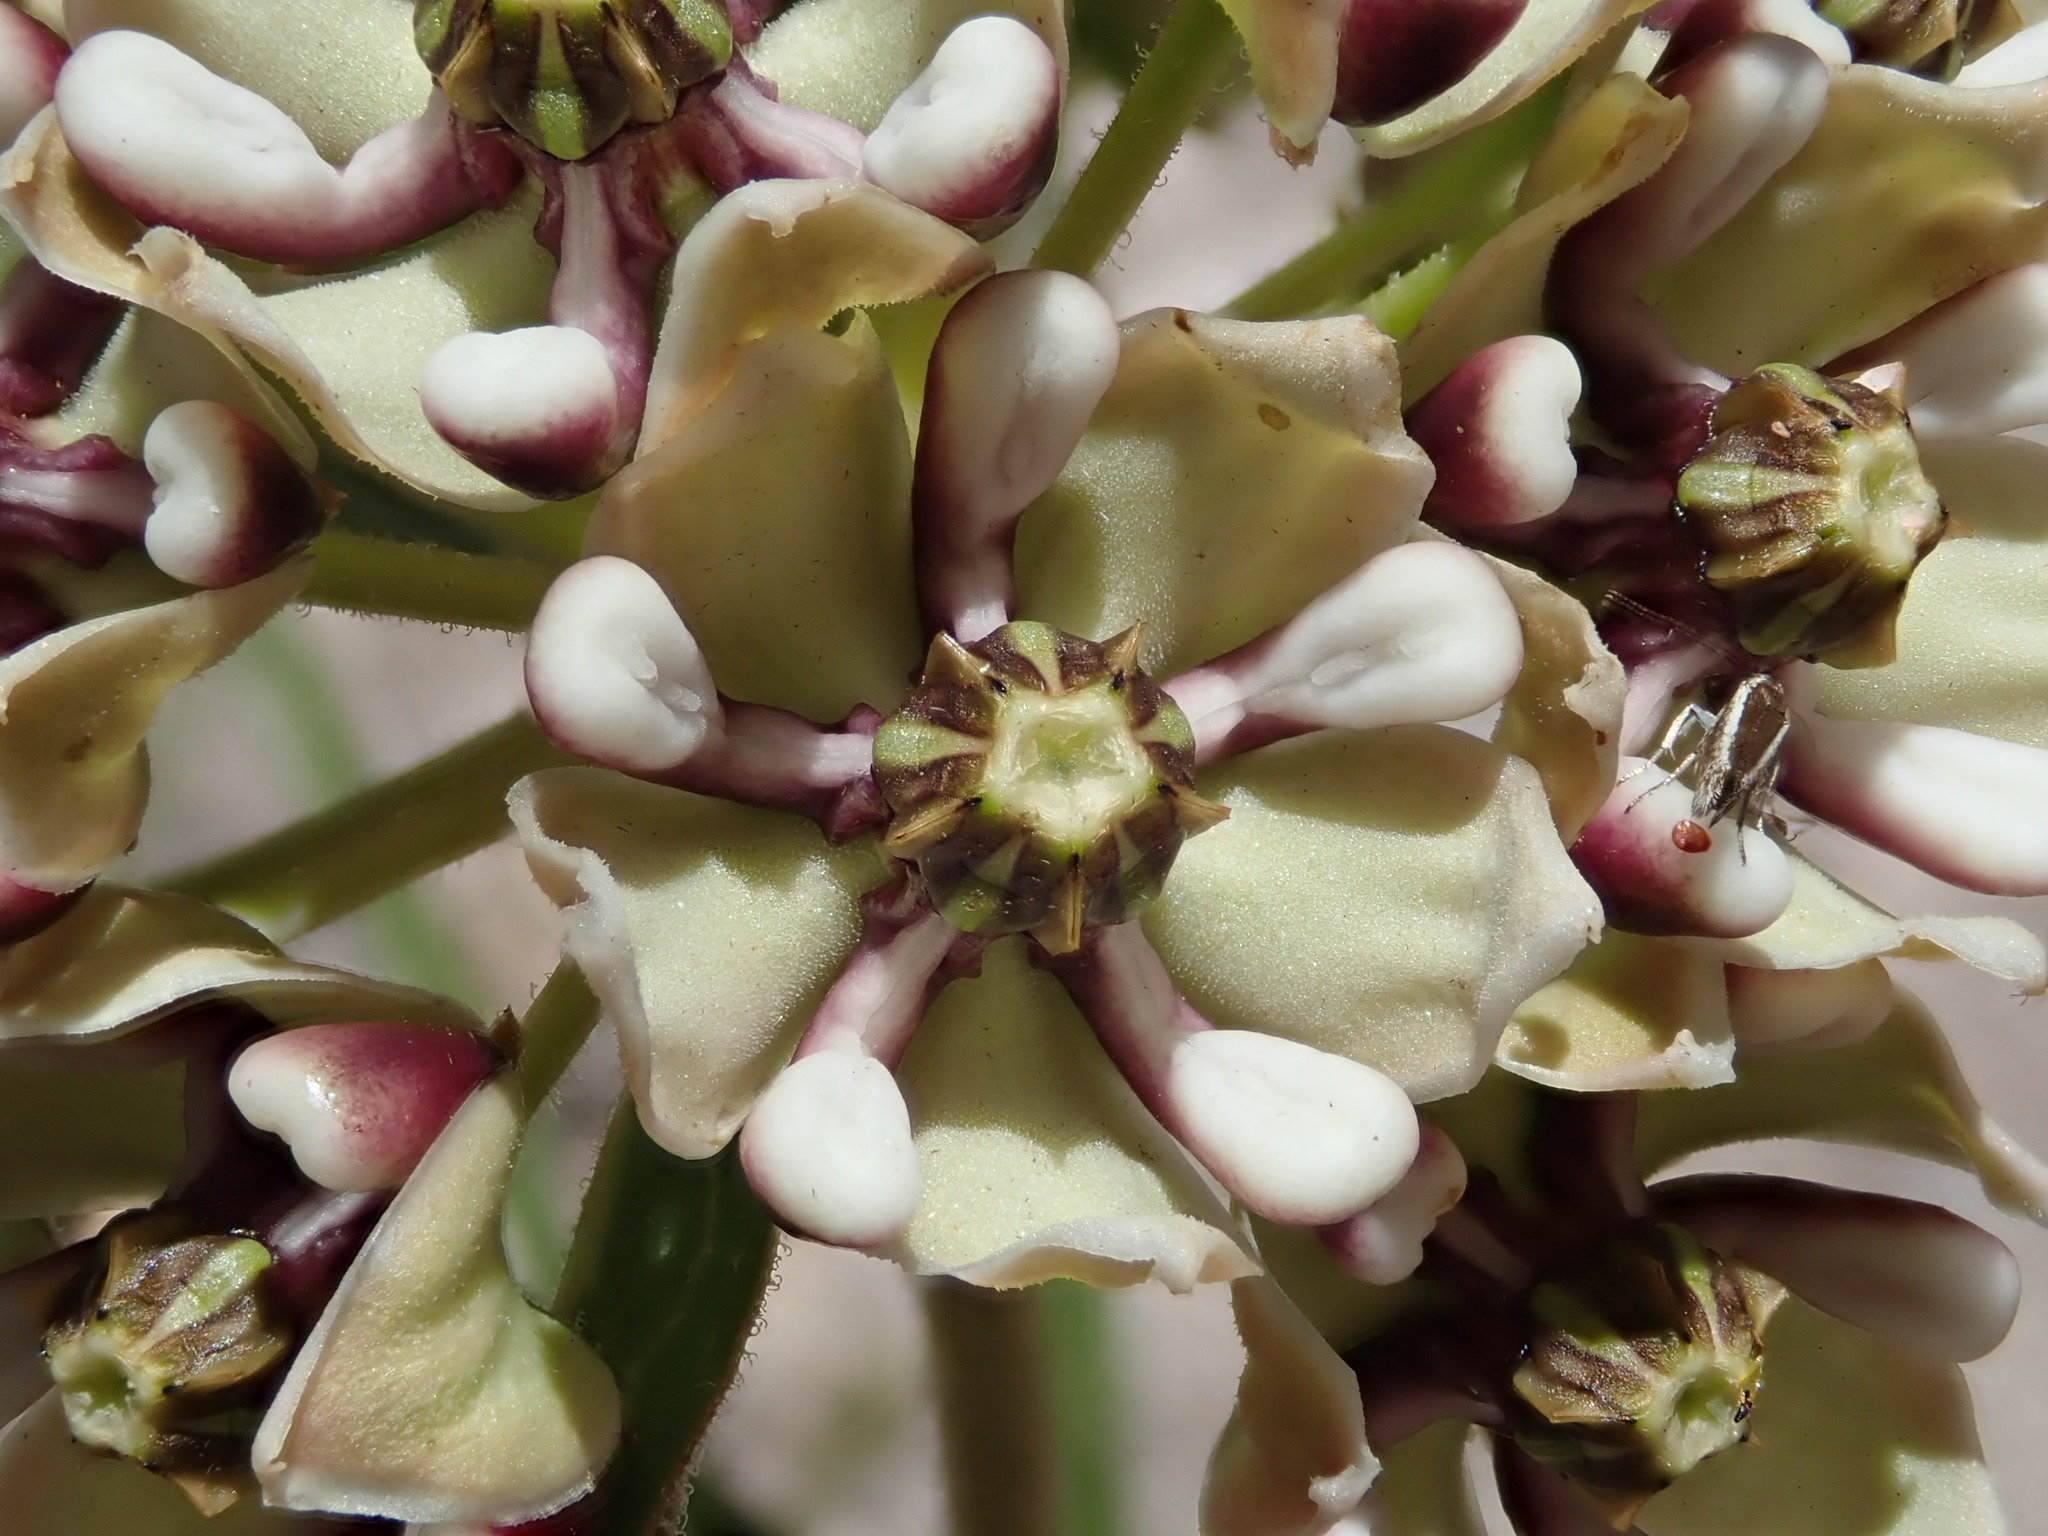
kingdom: Plantae
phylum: Tracheophyta
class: Magnoliopsida
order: Gentianales
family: Apocynaceae
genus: Asclepias
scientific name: Asclepias asperula
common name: Antelope horns
